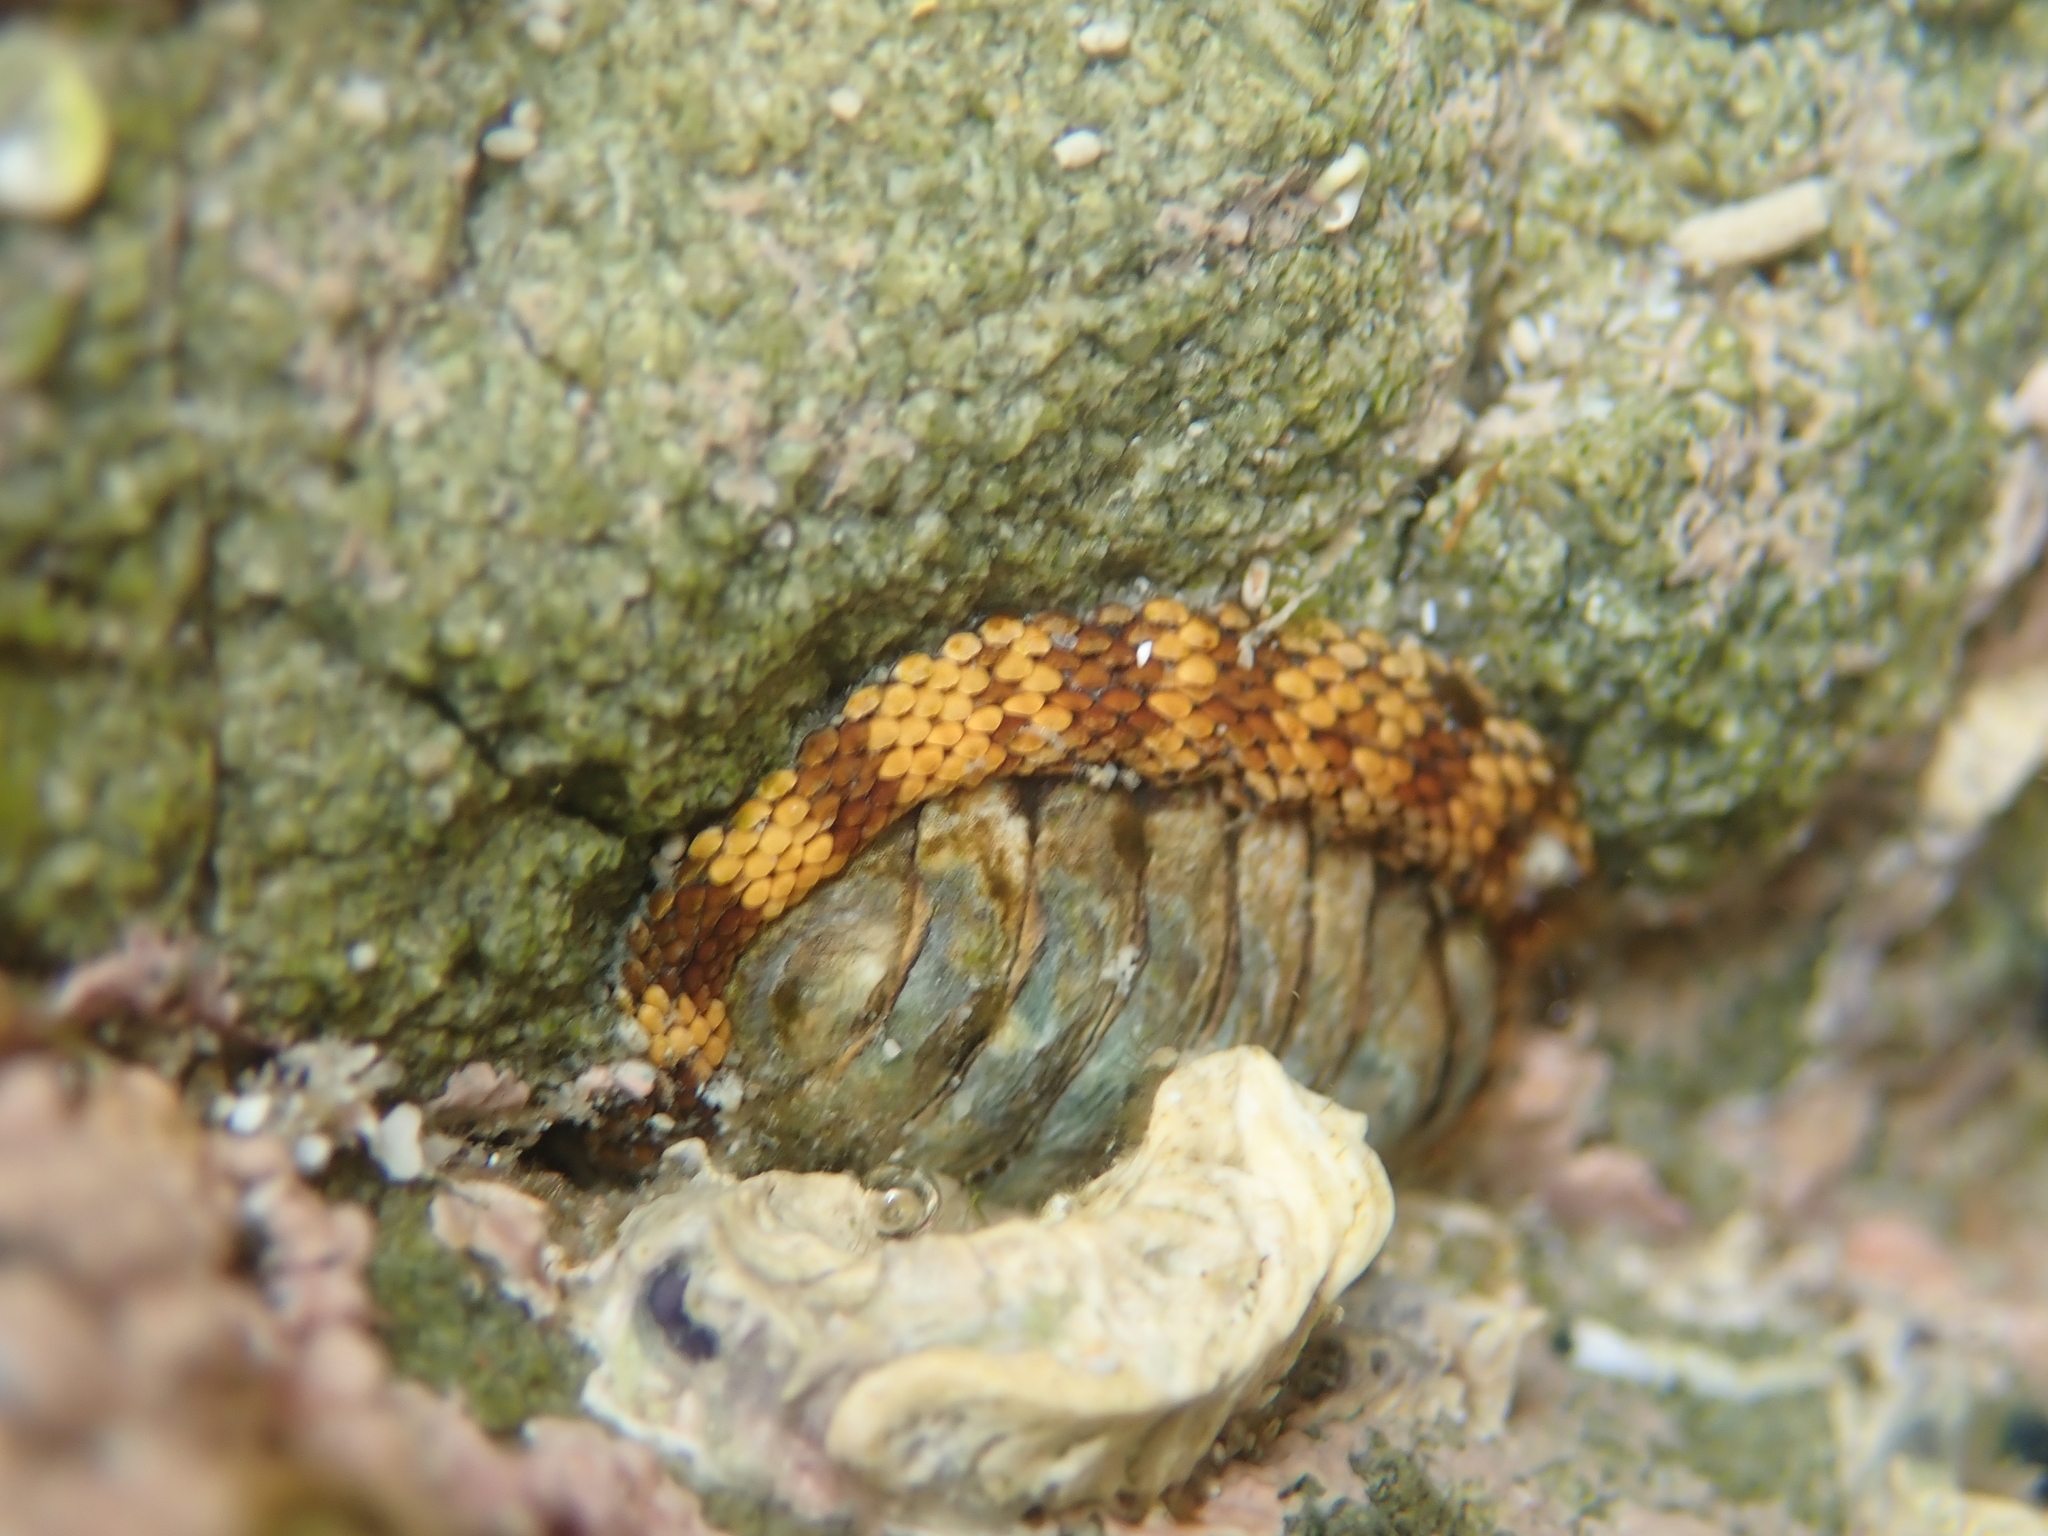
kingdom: Animalia
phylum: Mollusca
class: Polyplacophora
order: Chitonida
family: Chitonidae
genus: Sypharochiton
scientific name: Sypharochiton pelliserpentis
